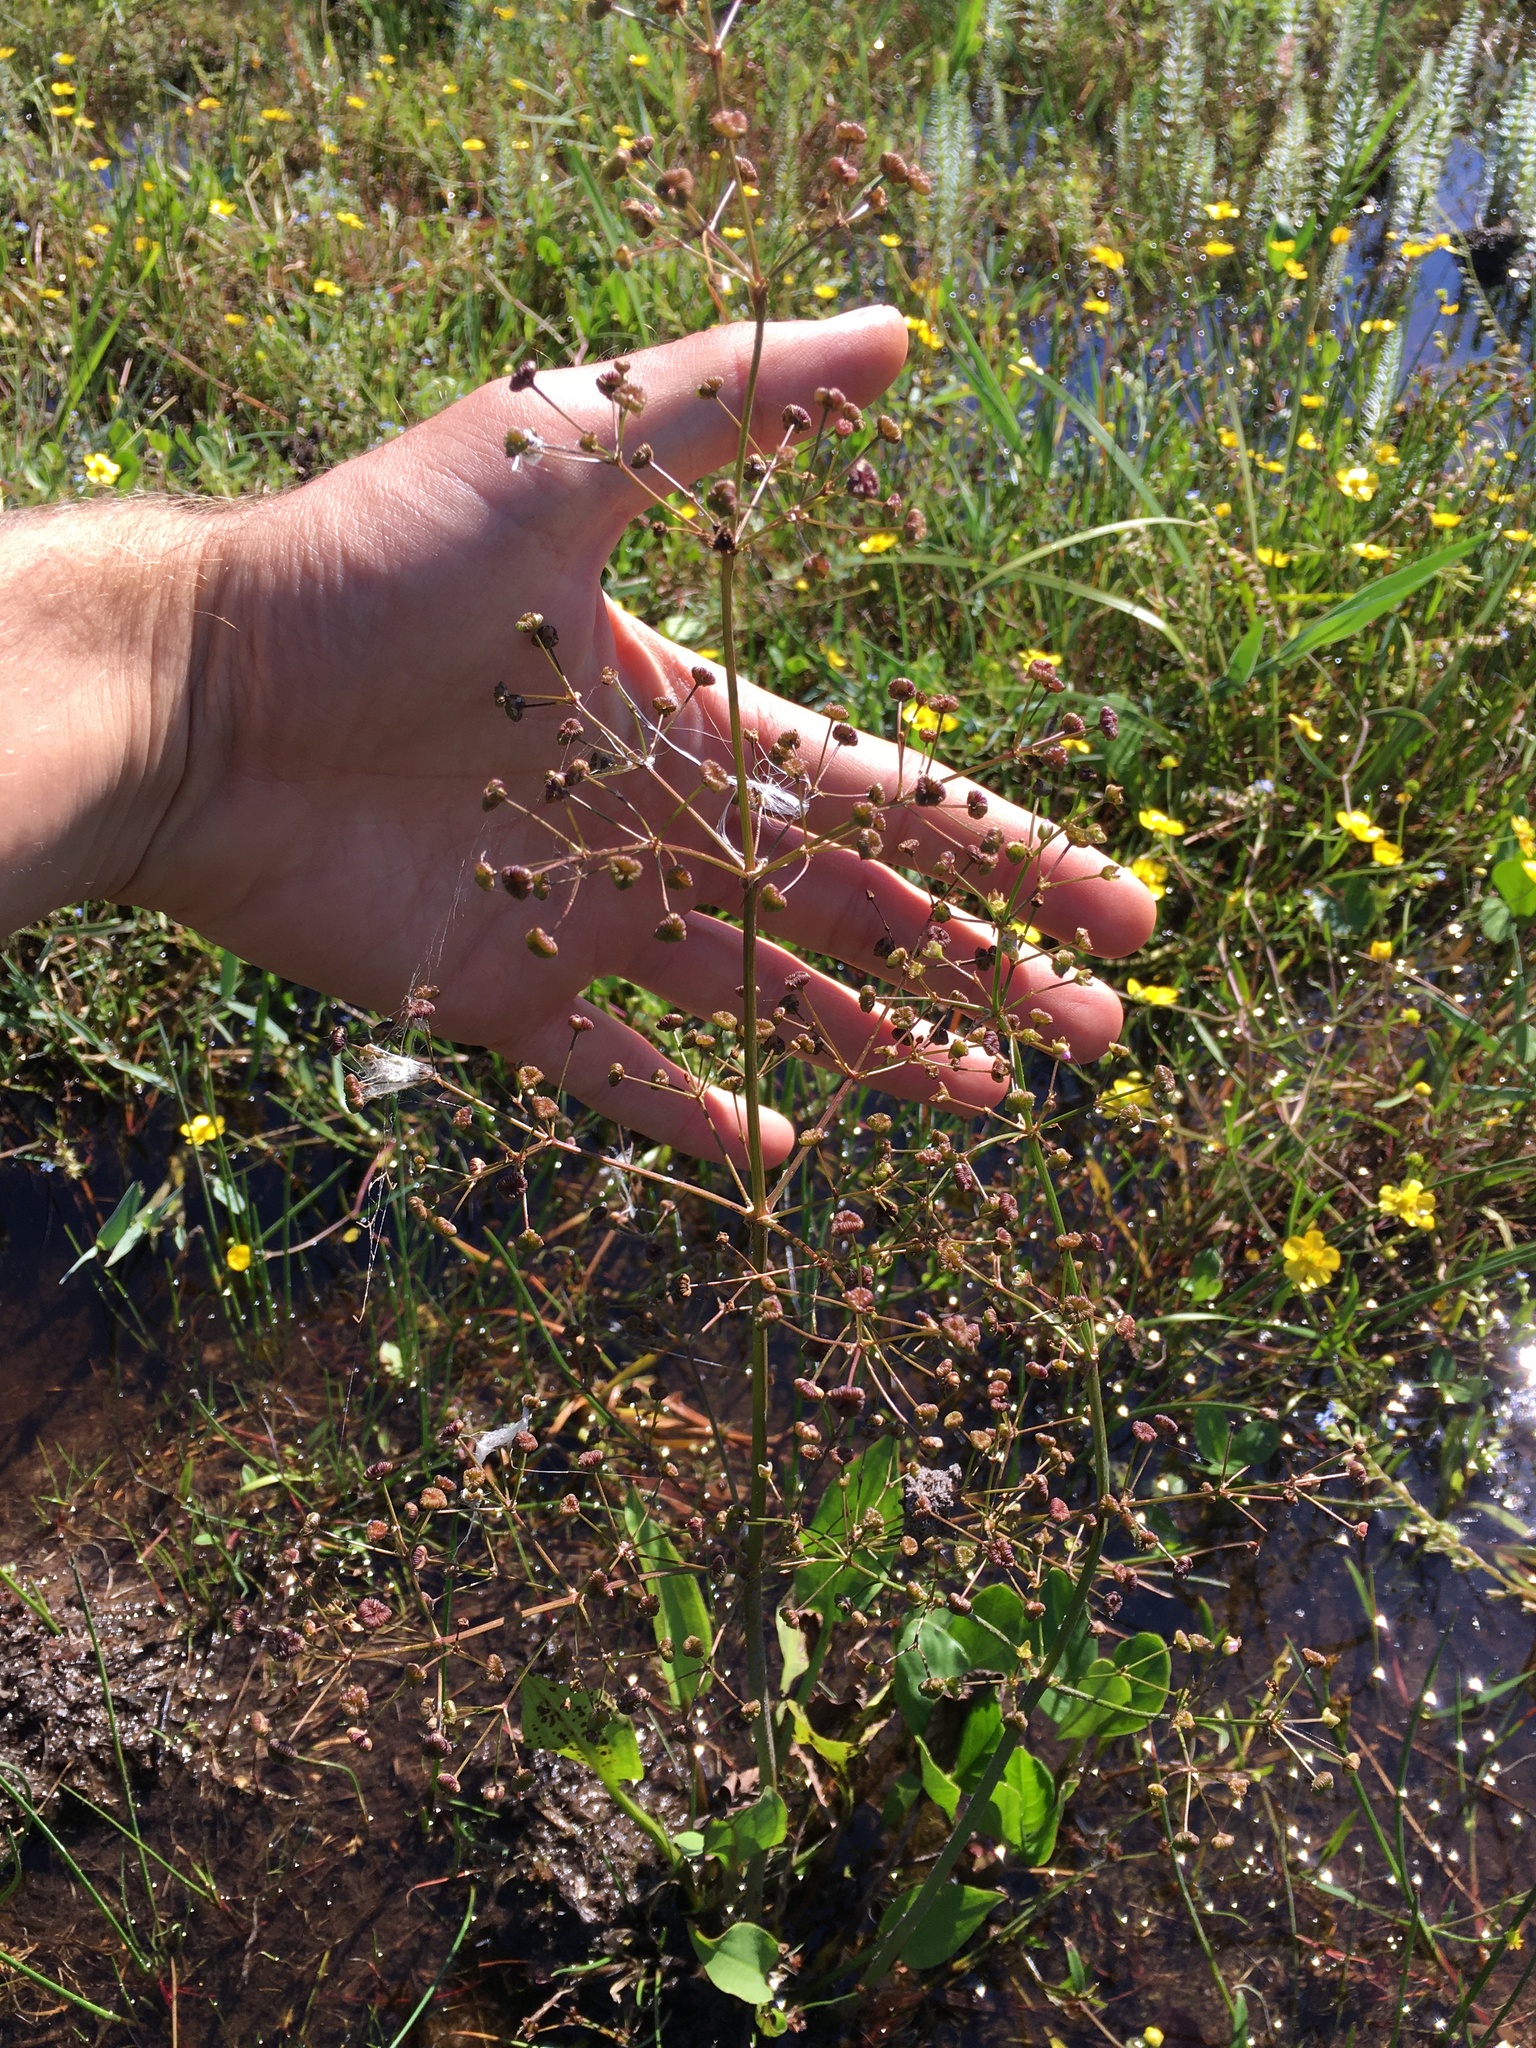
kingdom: Plantae
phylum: Tracheophyta
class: Liliopsida
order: Alismatales
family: Alismataceae
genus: Alisma
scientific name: Alisma plantago-aquatica
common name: Water-plantain
